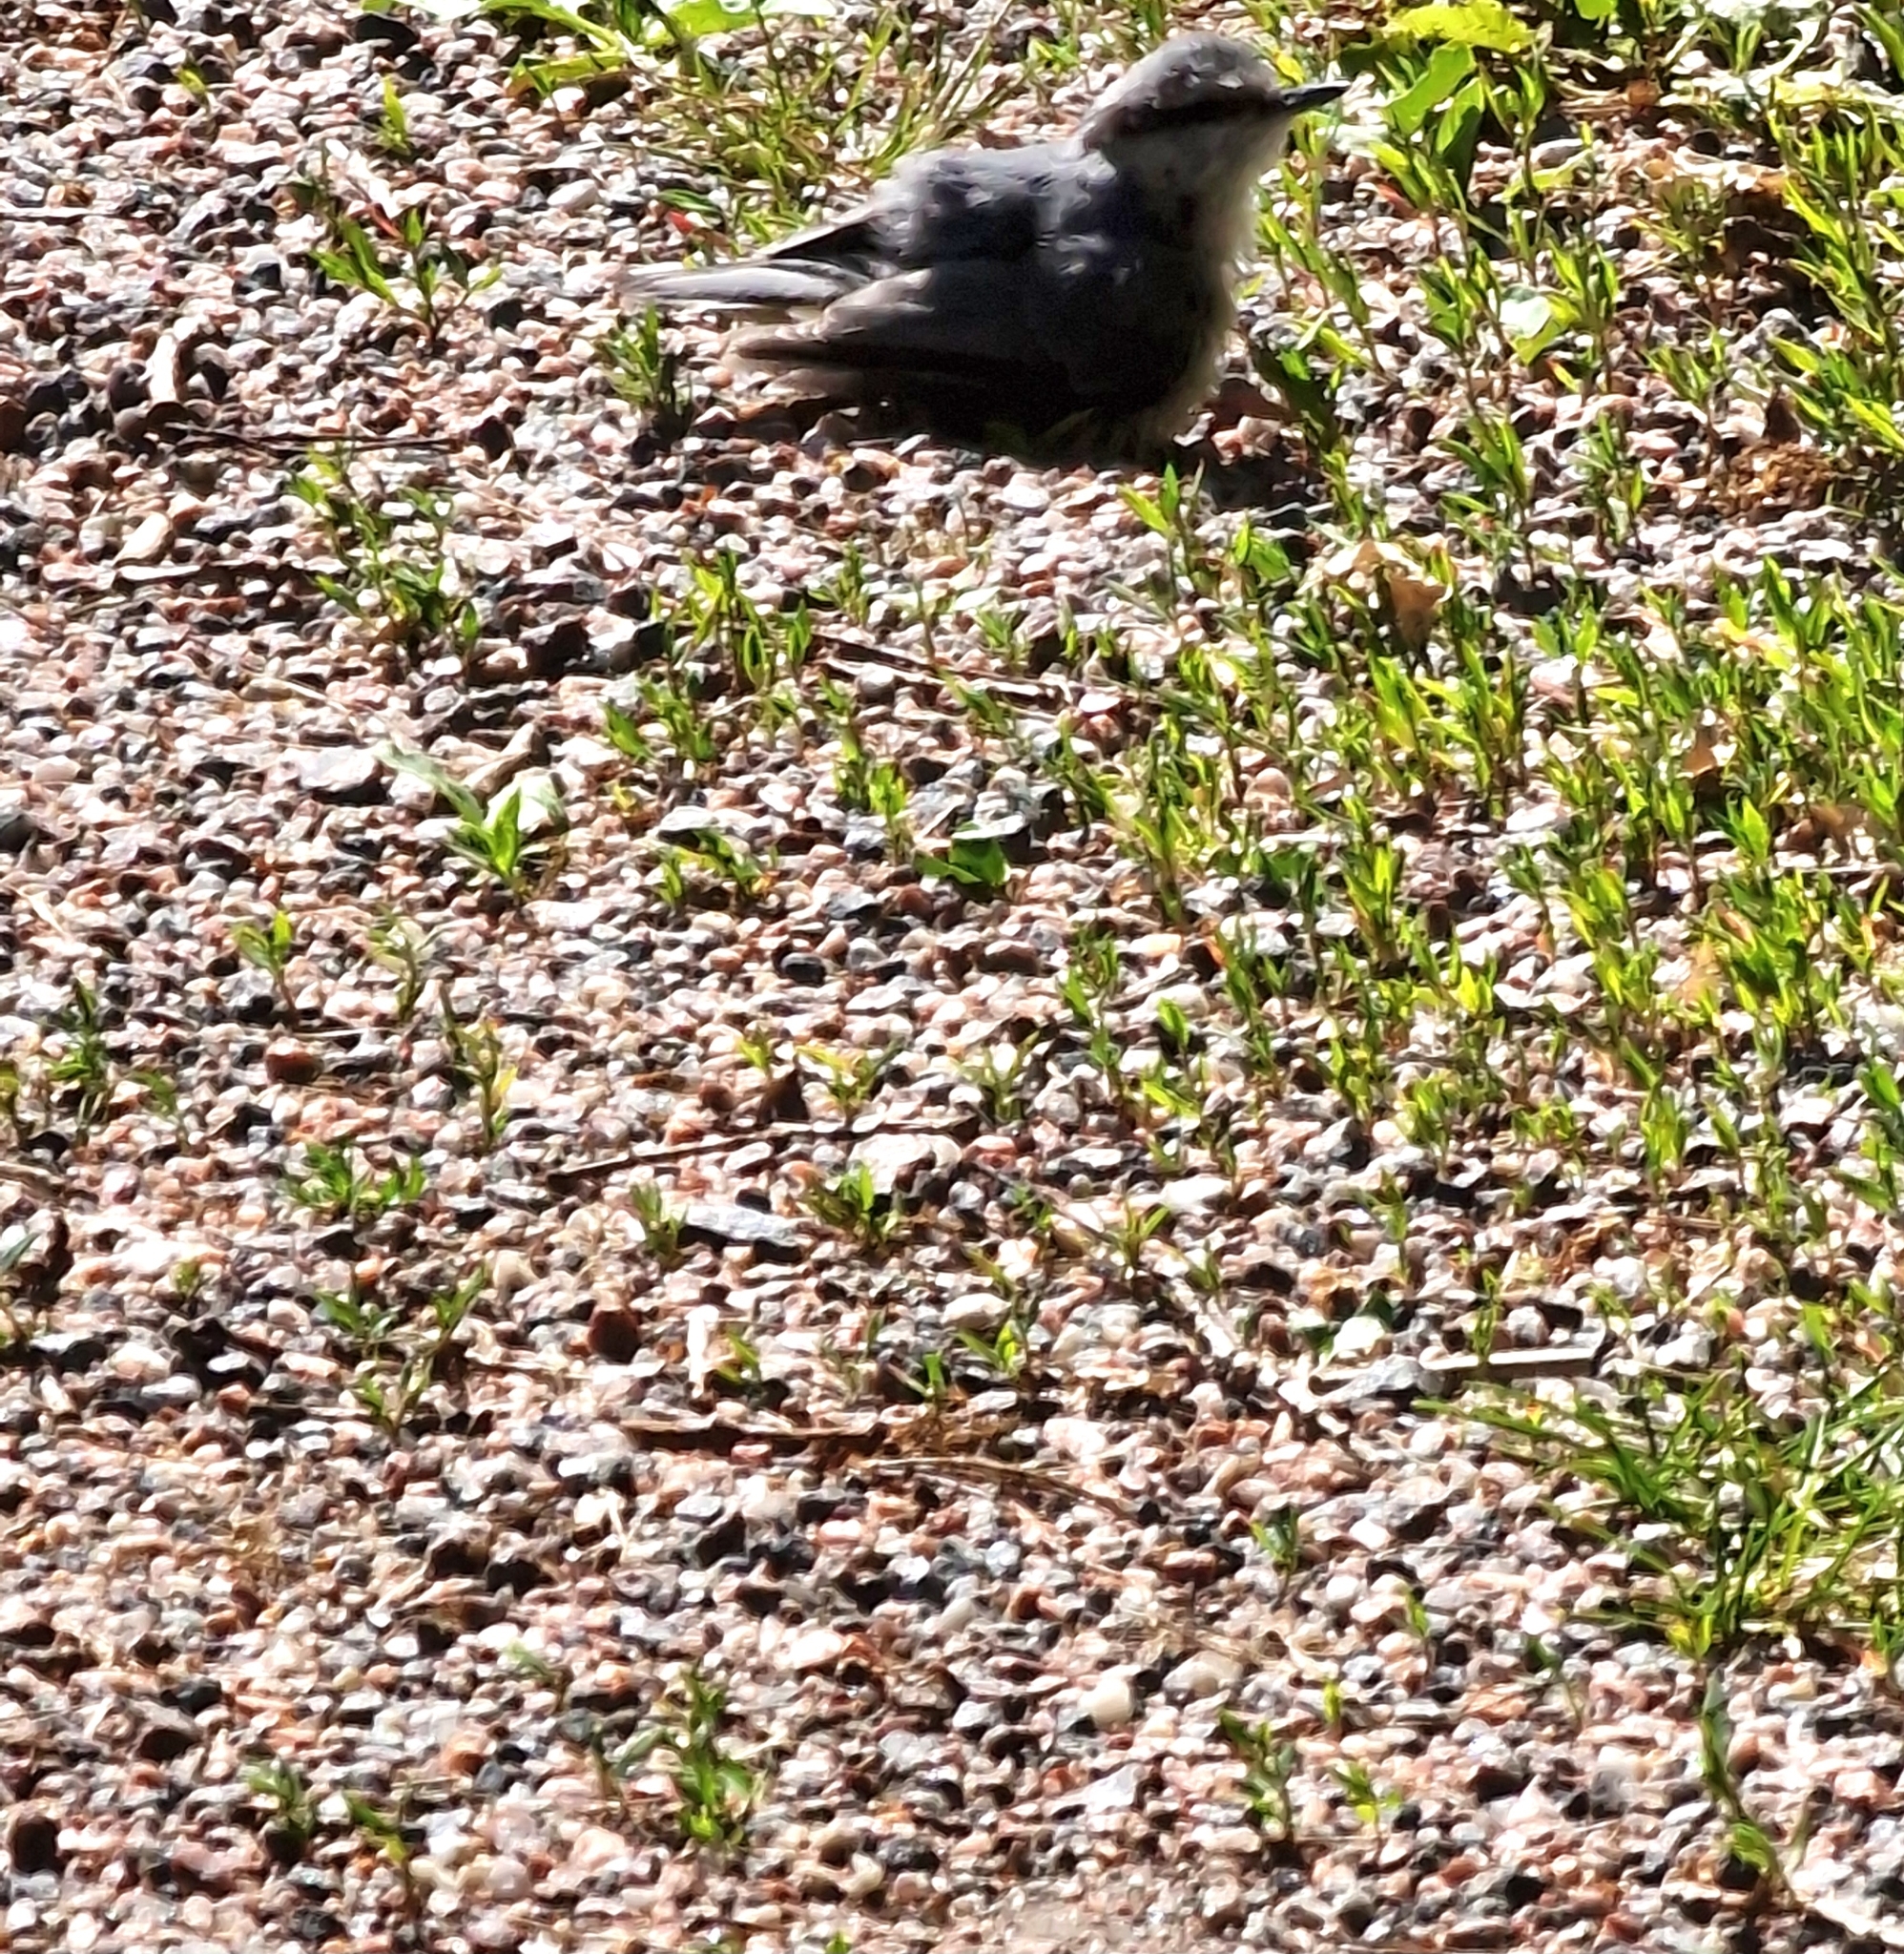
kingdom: Animalia
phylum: Chordata
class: Aves
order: Passeriformes
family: Sittidae
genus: Sitta
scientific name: Sitta europaea
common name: Eurasian nuthatch
